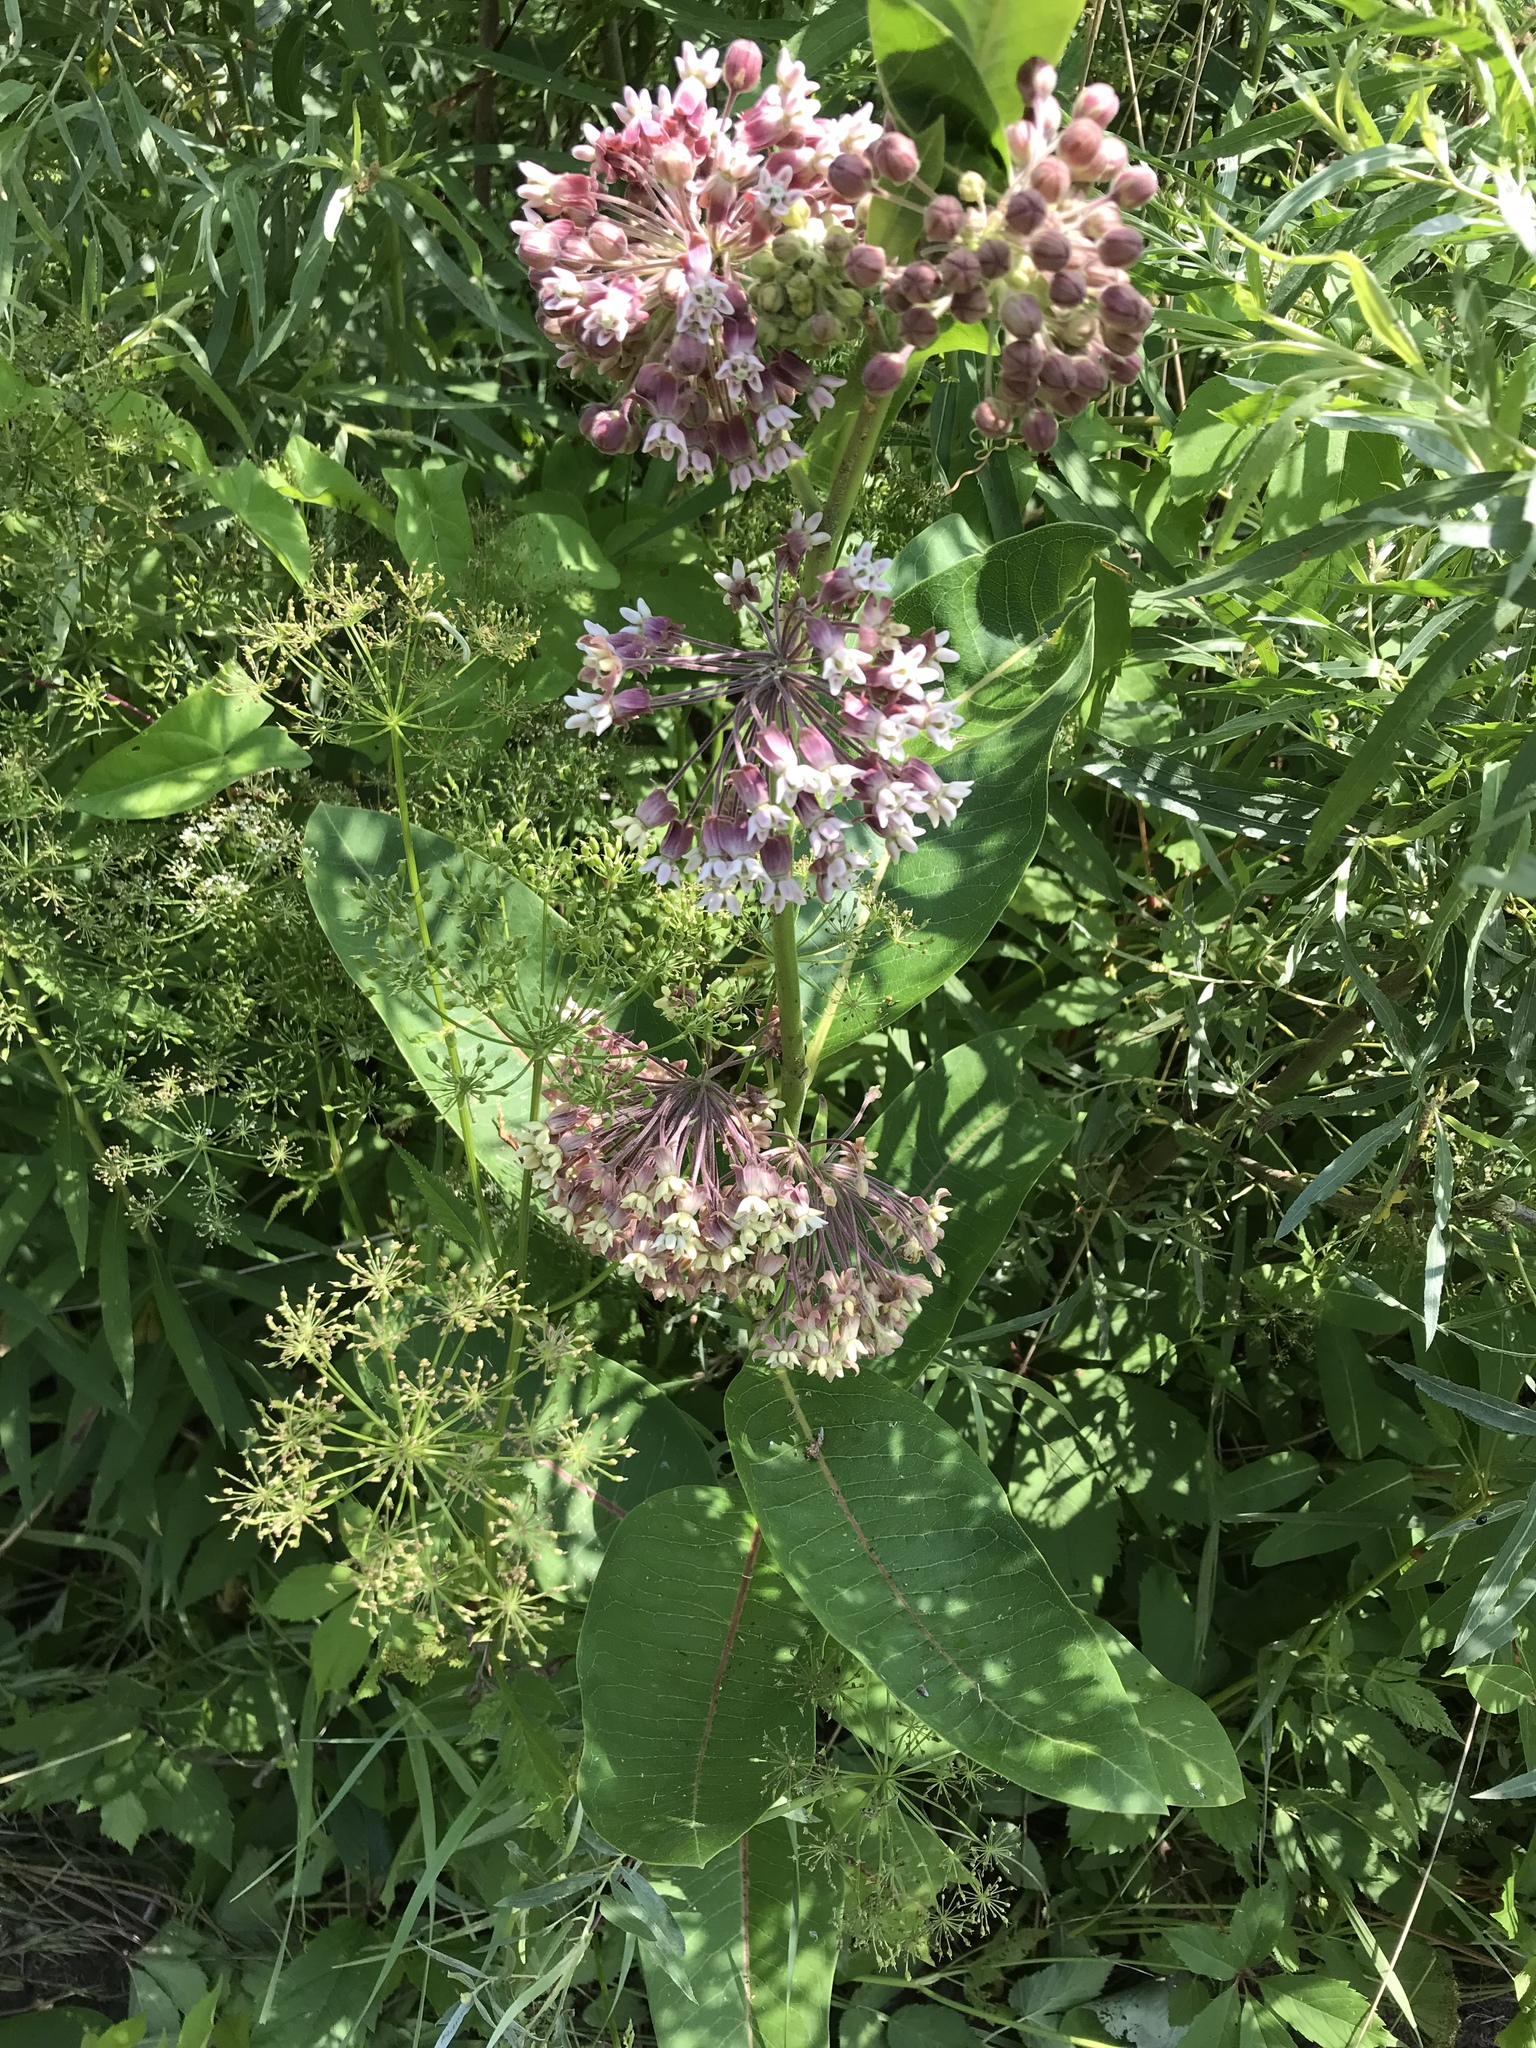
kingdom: Plantae
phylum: Tracheophyta
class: Magnoliopsida
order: Gentianales
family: Apocynaceae
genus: Asclepias
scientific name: Asclepias syriaca
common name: Common milkweed
